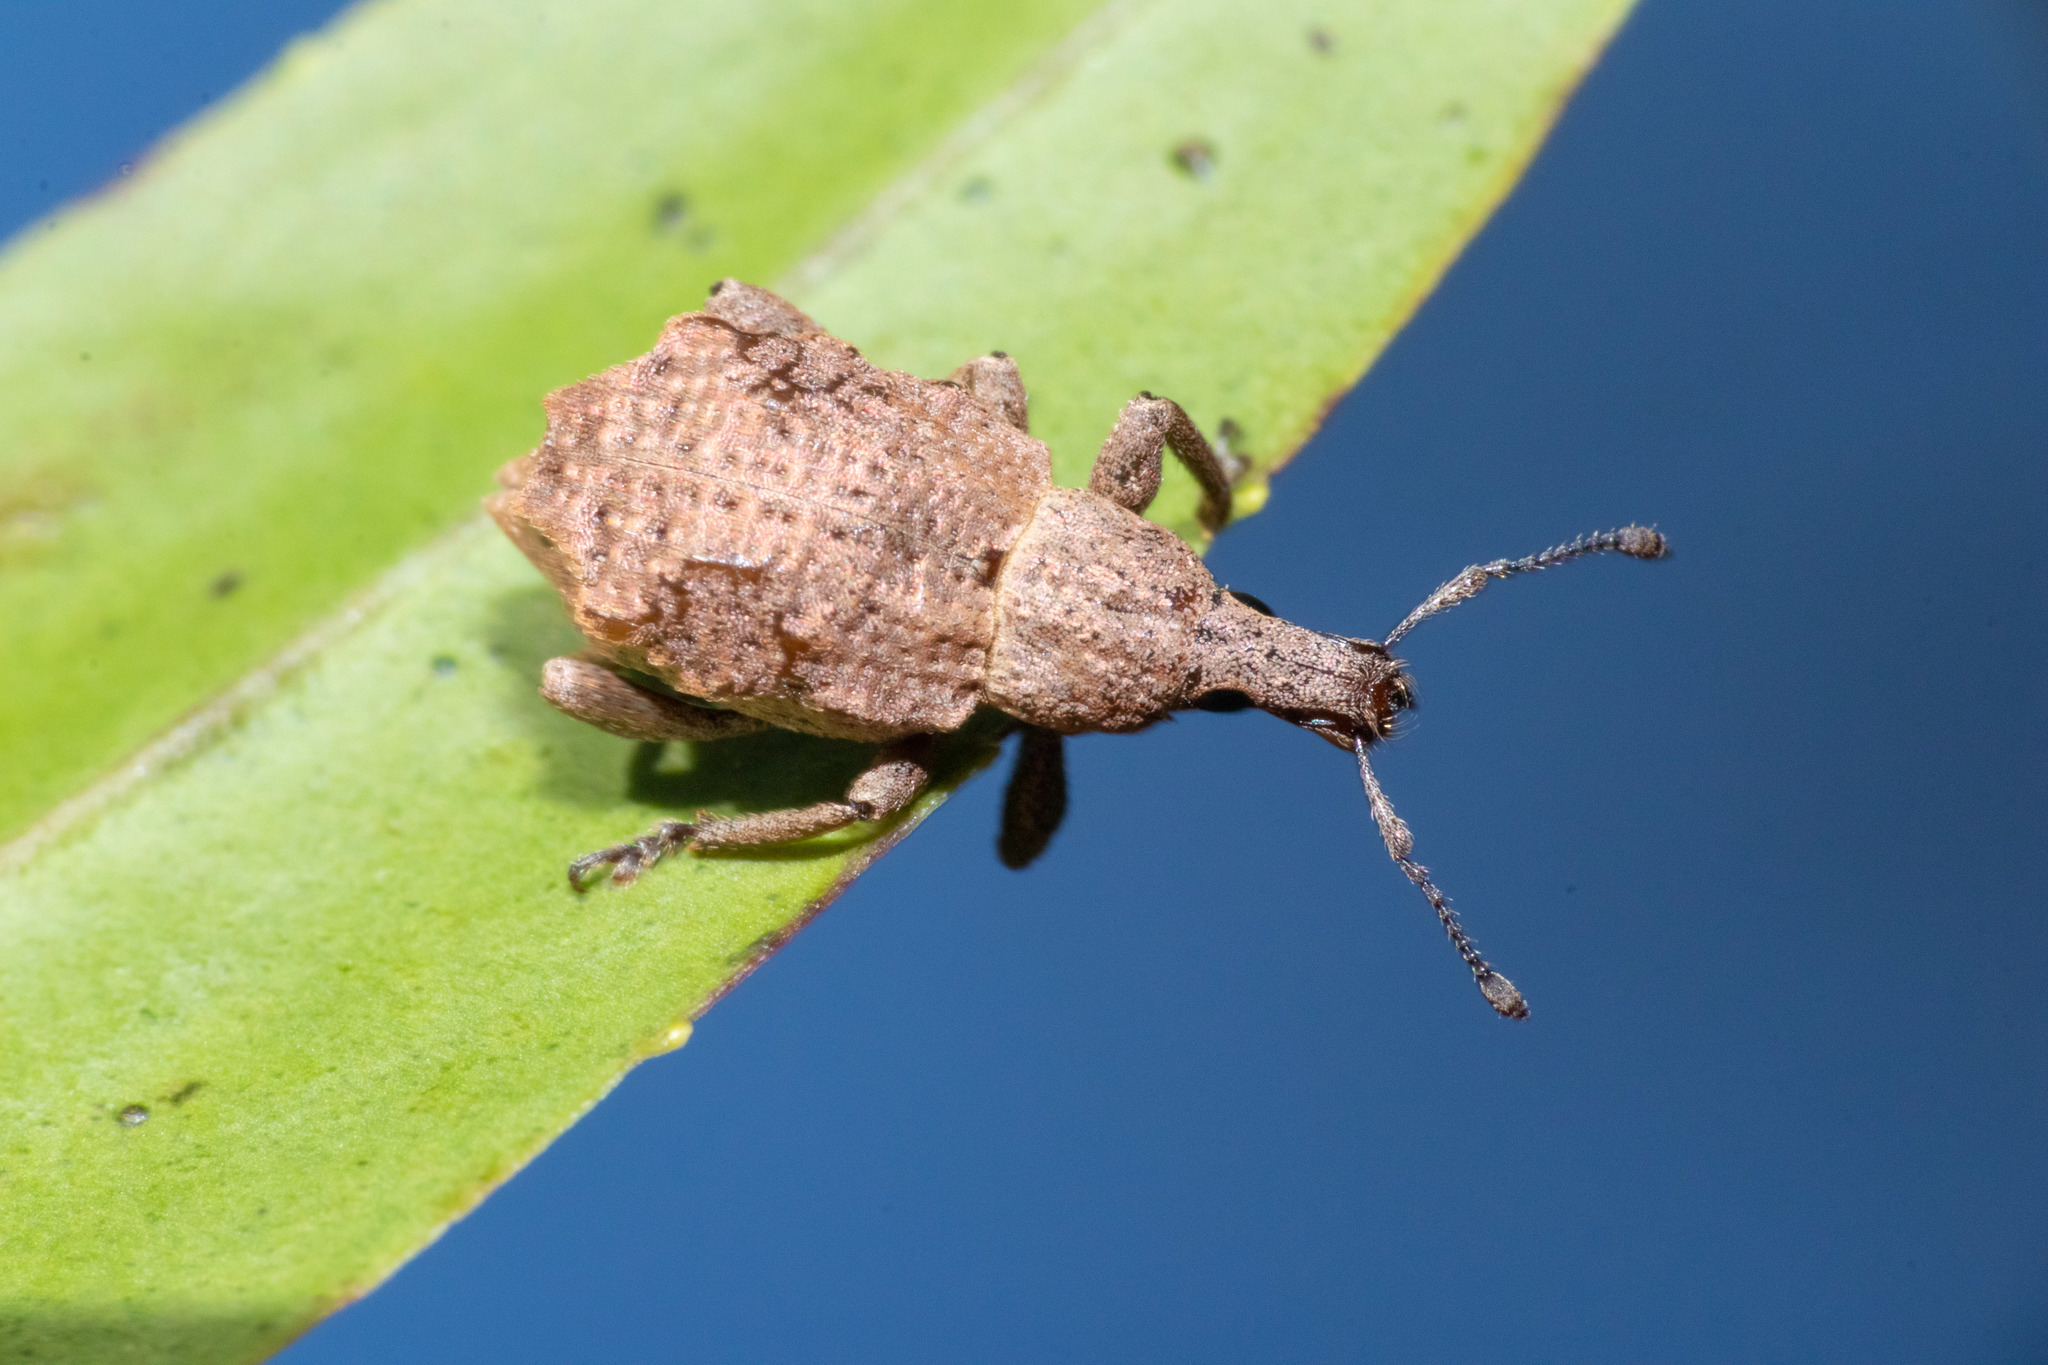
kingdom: Animalia
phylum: Arthropoda
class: Insecta
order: Coleoptera
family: Curculionidae
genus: Catoptes
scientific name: Catoptes censorius
